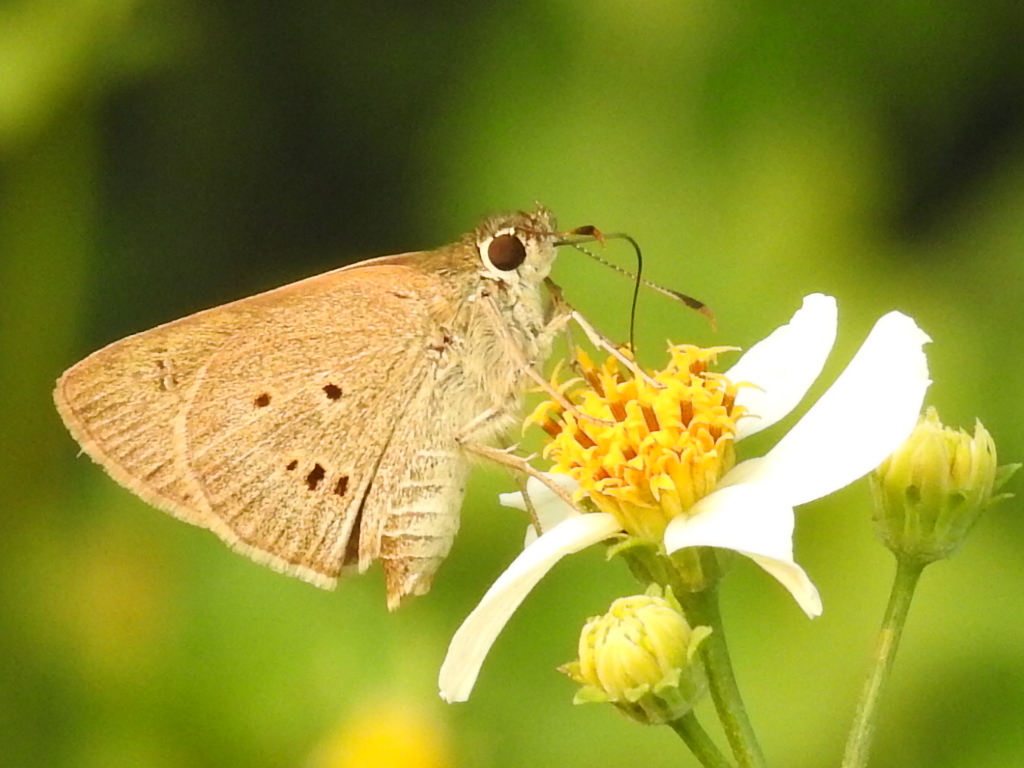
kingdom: Animalia
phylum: Arthropoda
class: Insecta
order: Lepidoptera
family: Hesperiidae
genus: Suastus
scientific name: Suastus gremius
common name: Indian palm bob
